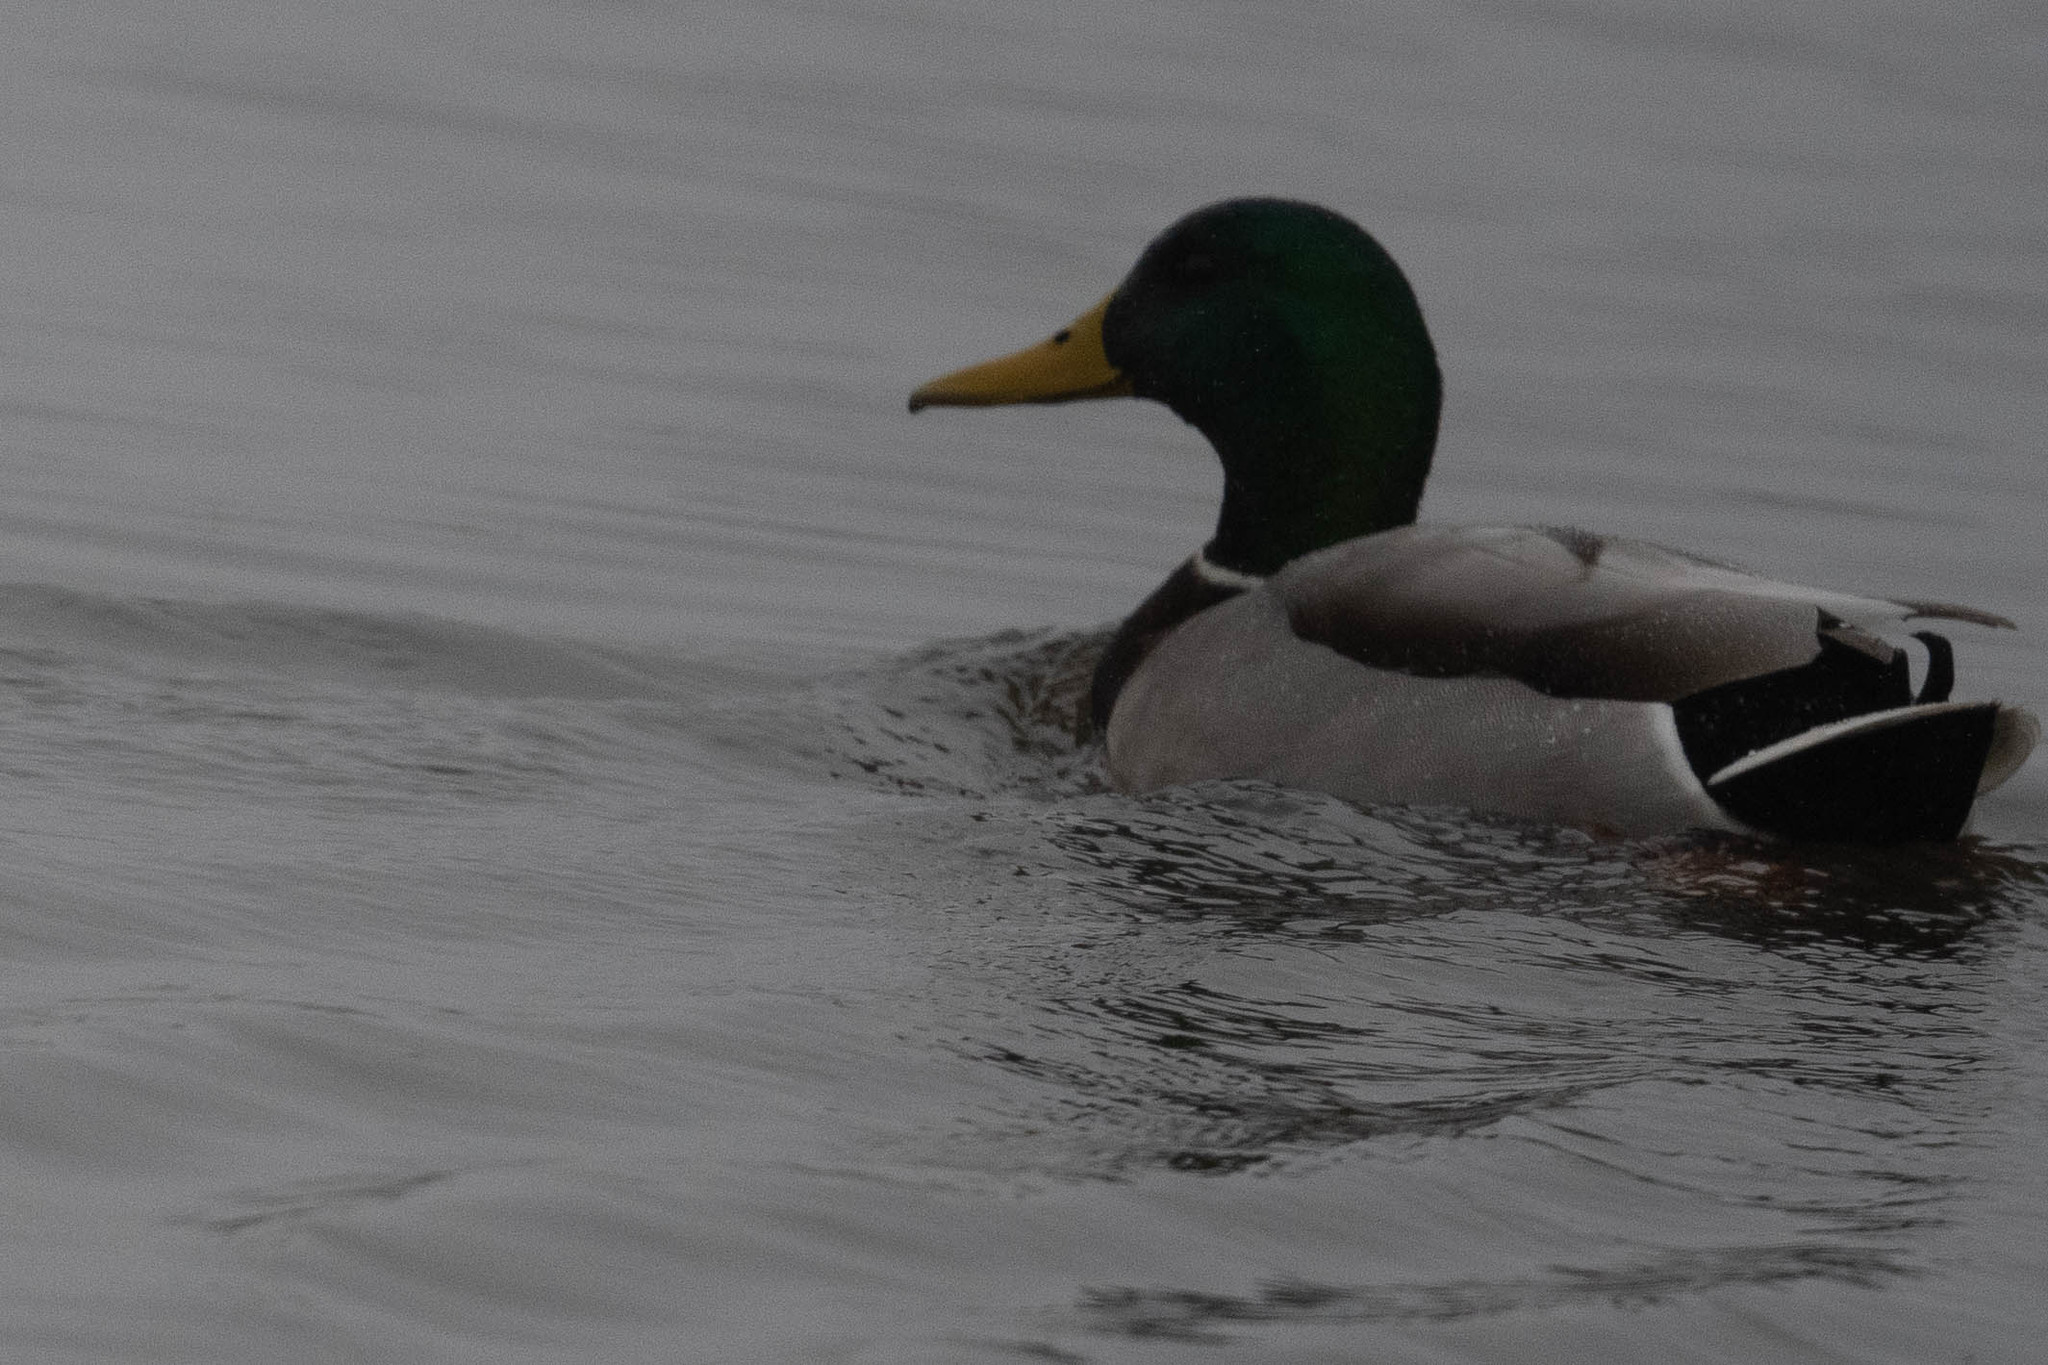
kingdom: Animalia
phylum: Chordata
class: Aves
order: Anseriformes
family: Anatidae
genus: Anas
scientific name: Anas platyrhynchos
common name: Mallard
